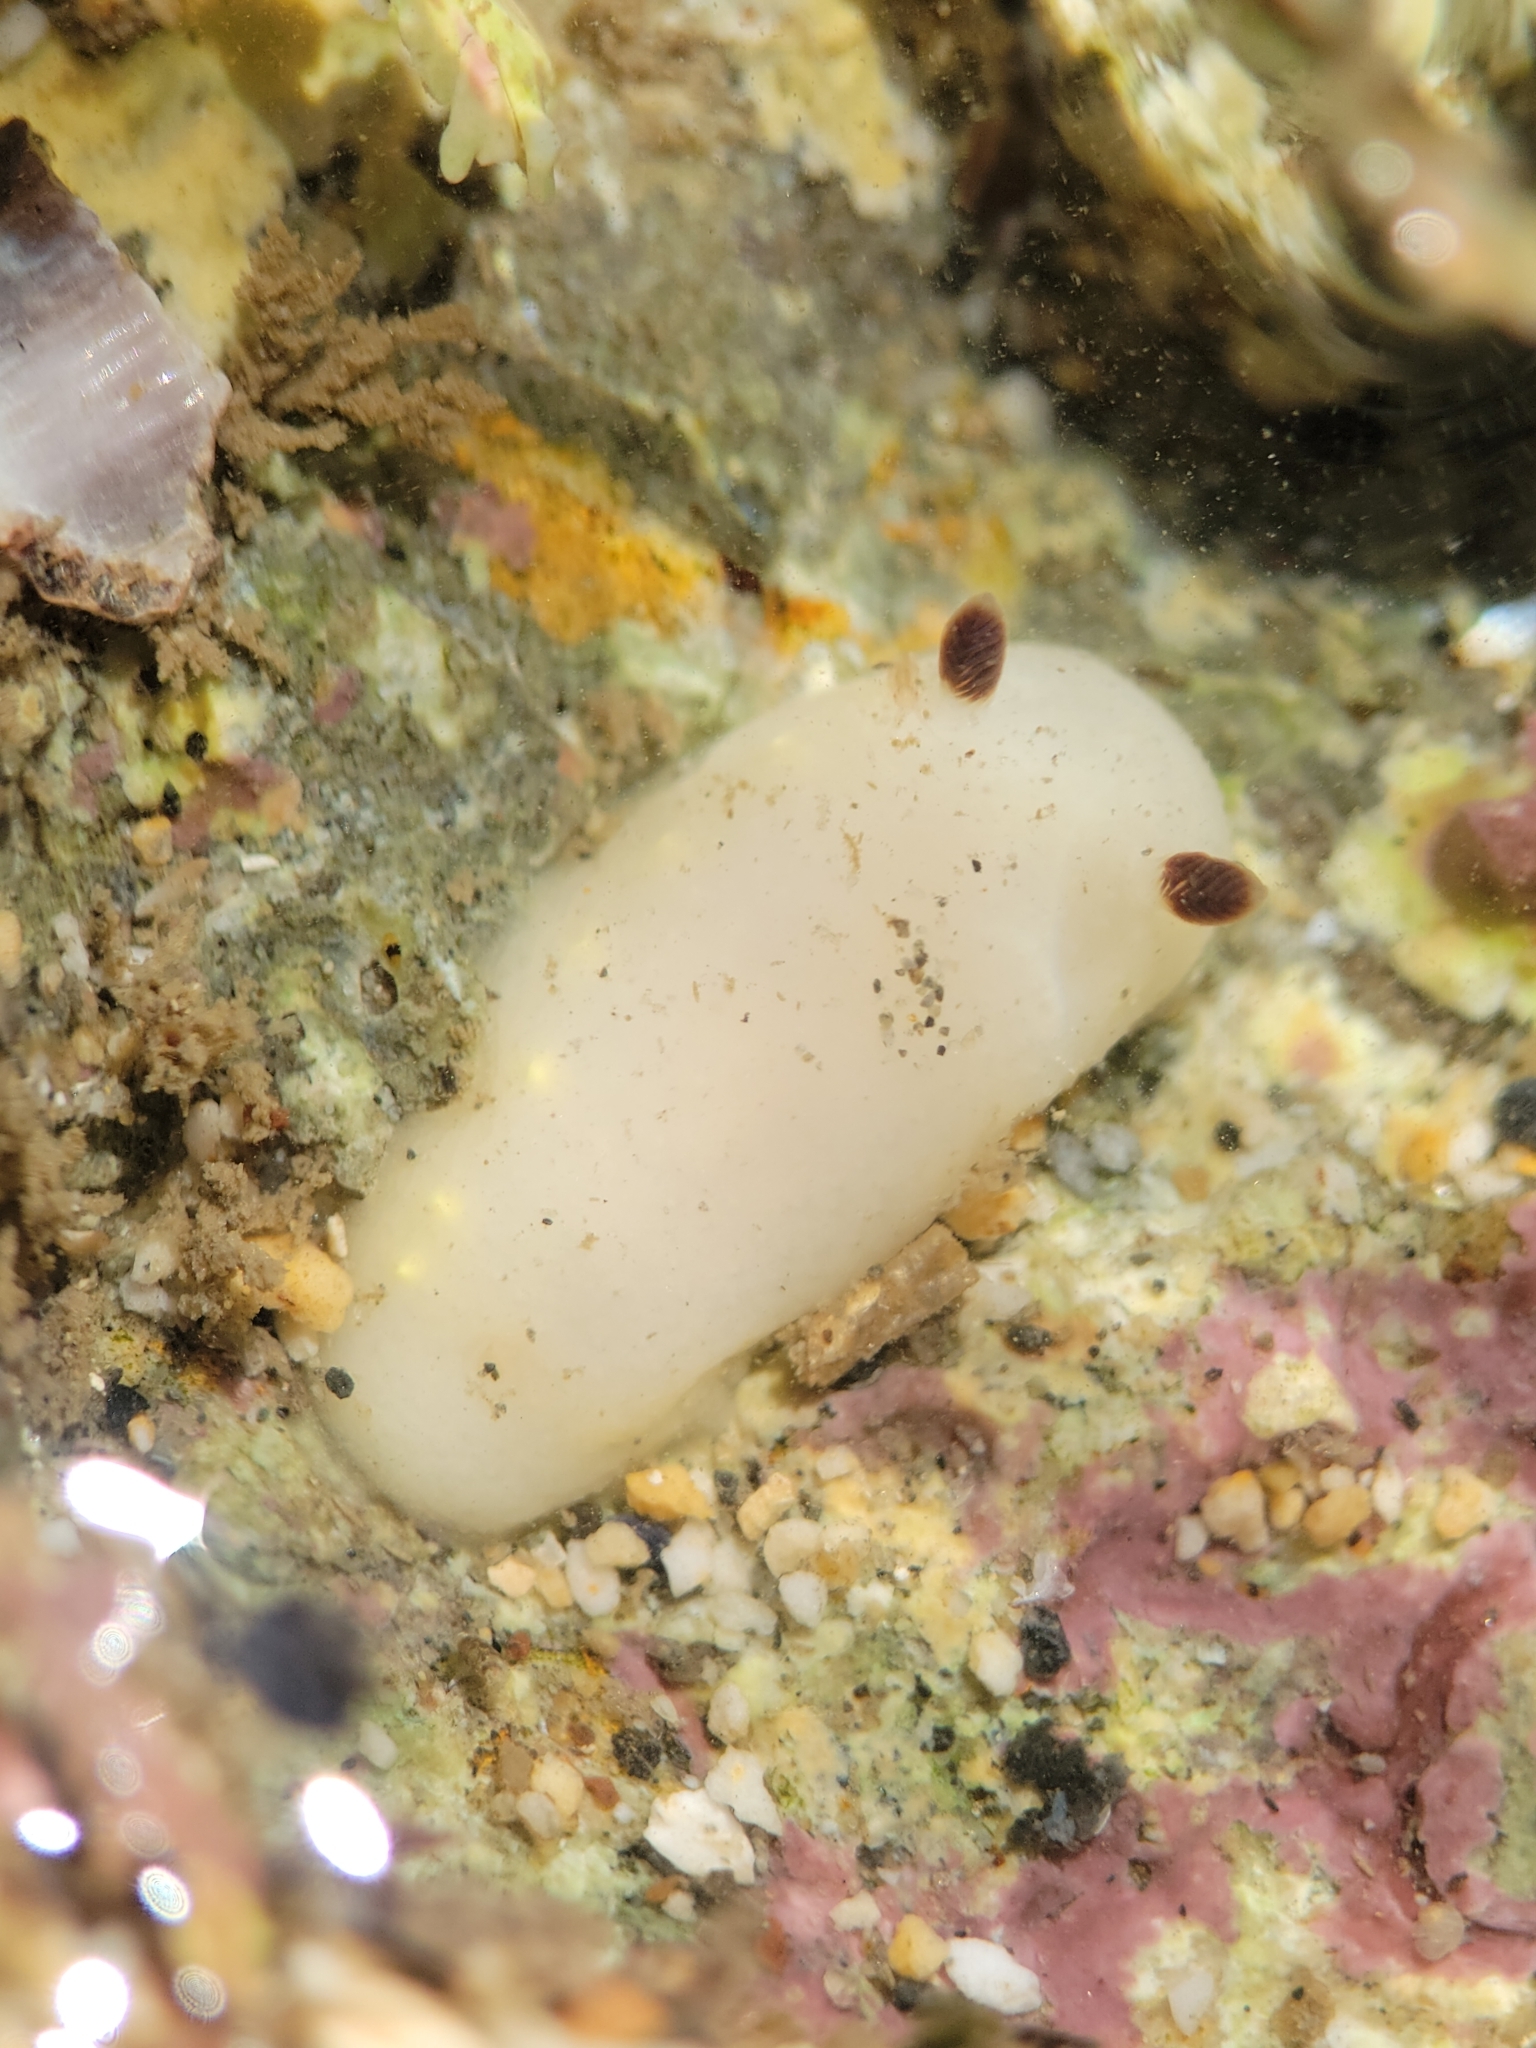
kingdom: Animalia
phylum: Mollusca
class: Gastropoda
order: Nudibranchia
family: Cadlinidae
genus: Cadlina
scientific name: Cadlina flavomaculata
